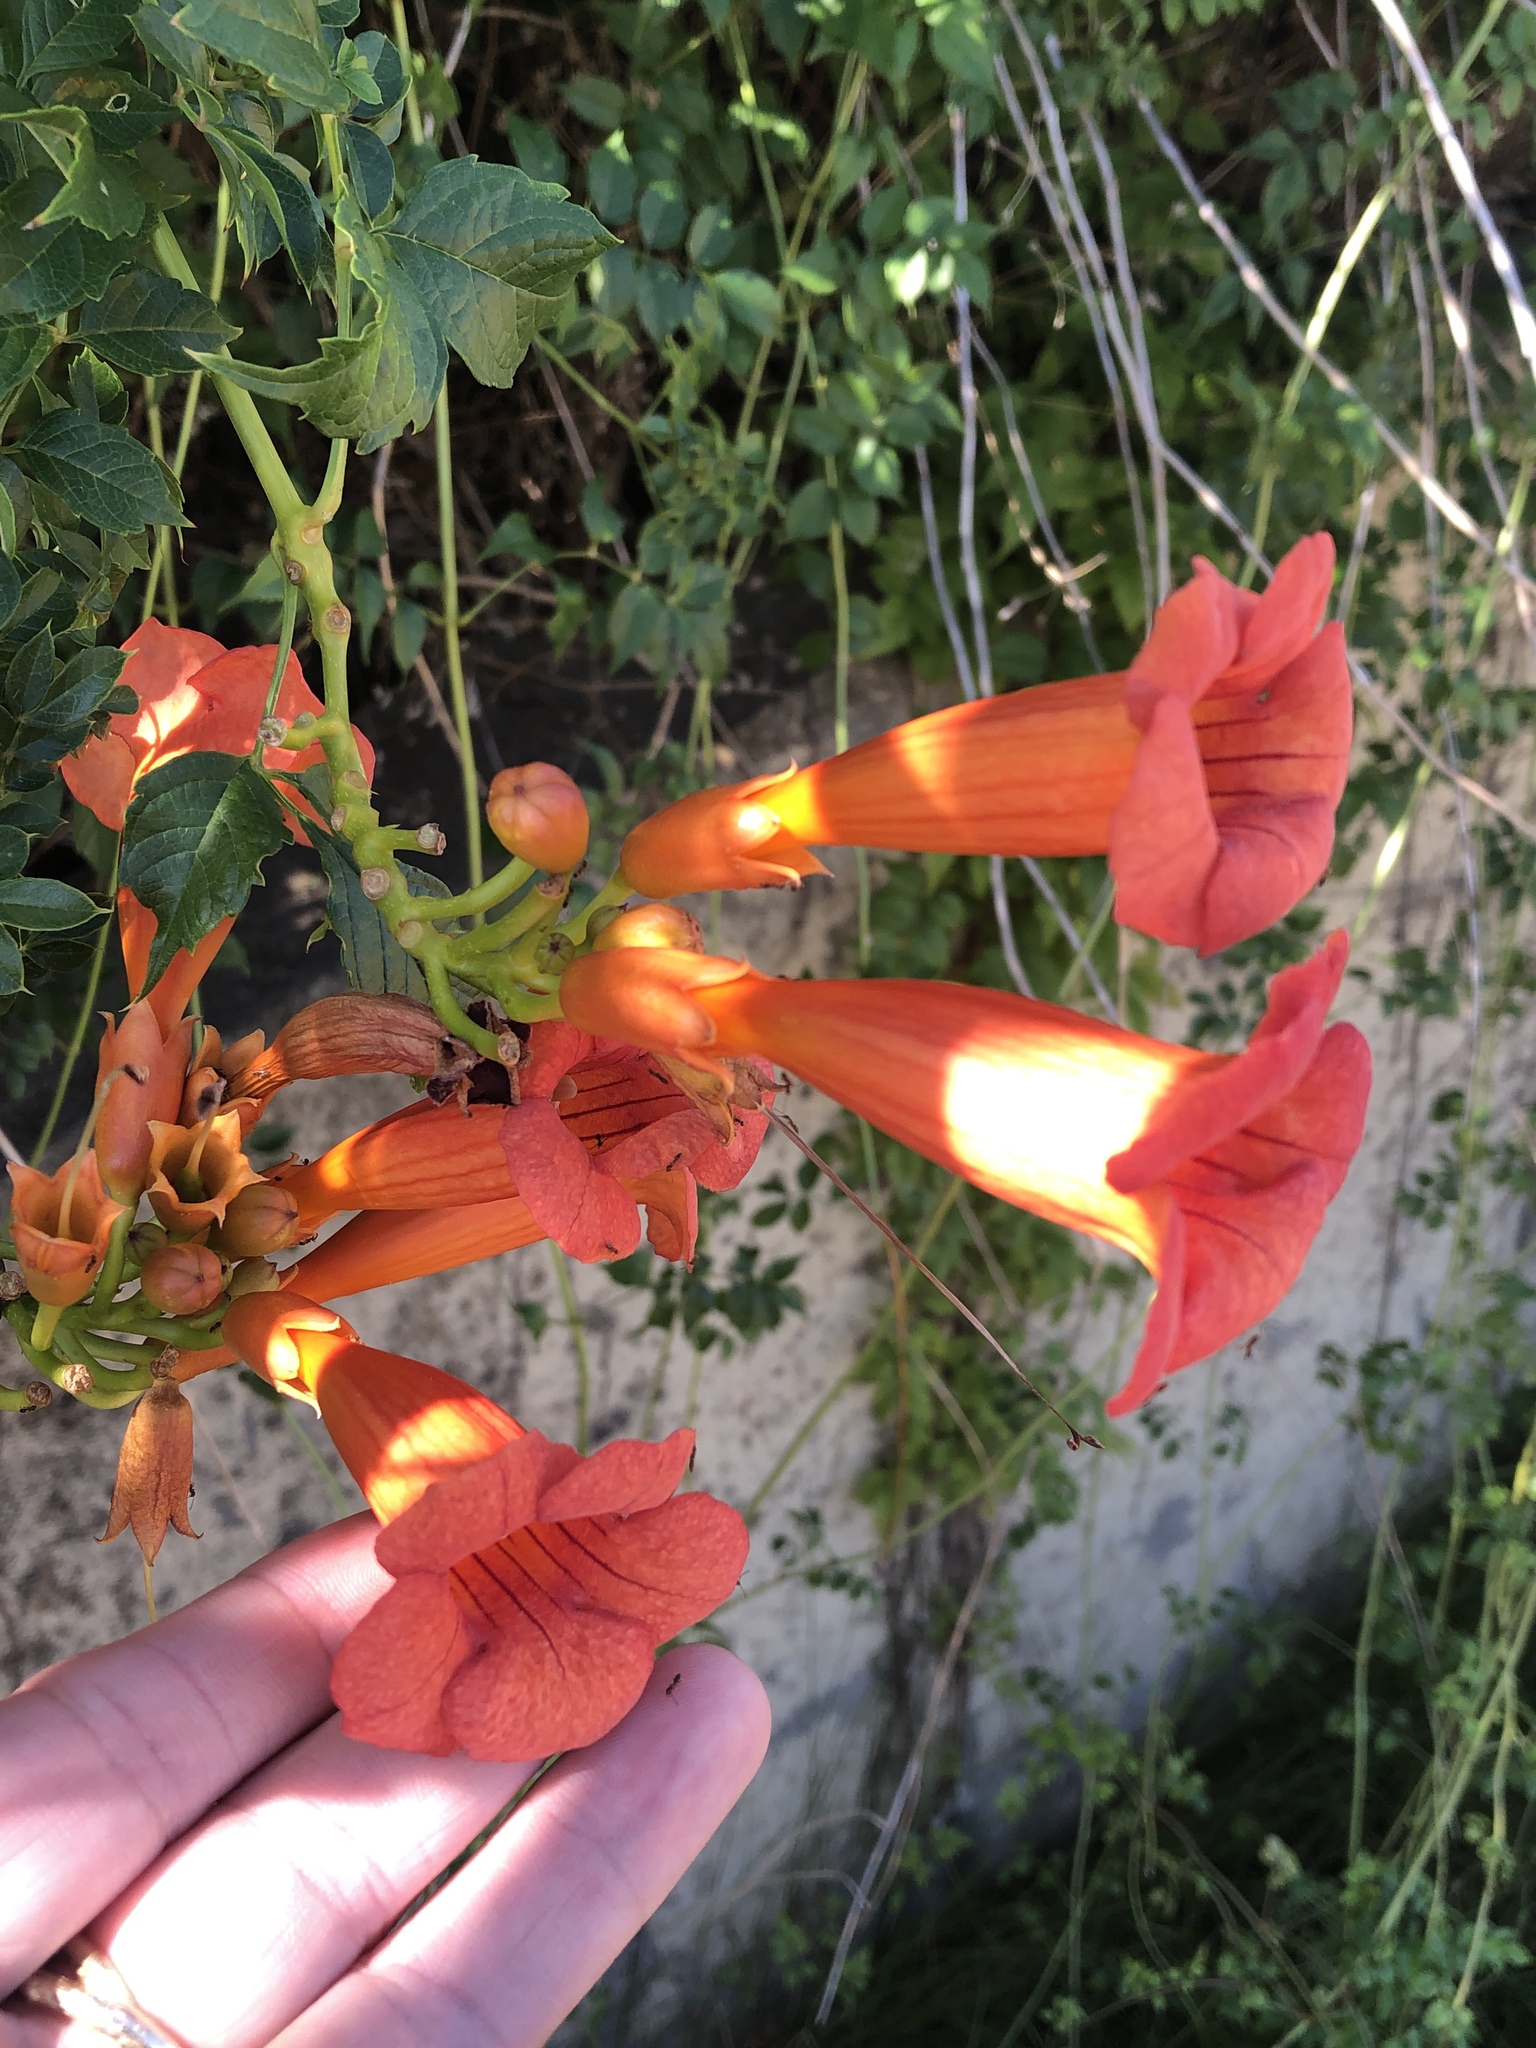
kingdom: Plantae
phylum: Tracheophyta
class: Magnoliopsida
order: Lamiales
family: Bignoniaceae
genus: Campsis
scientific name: Campsis radicans
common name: Trumpet-creeper
